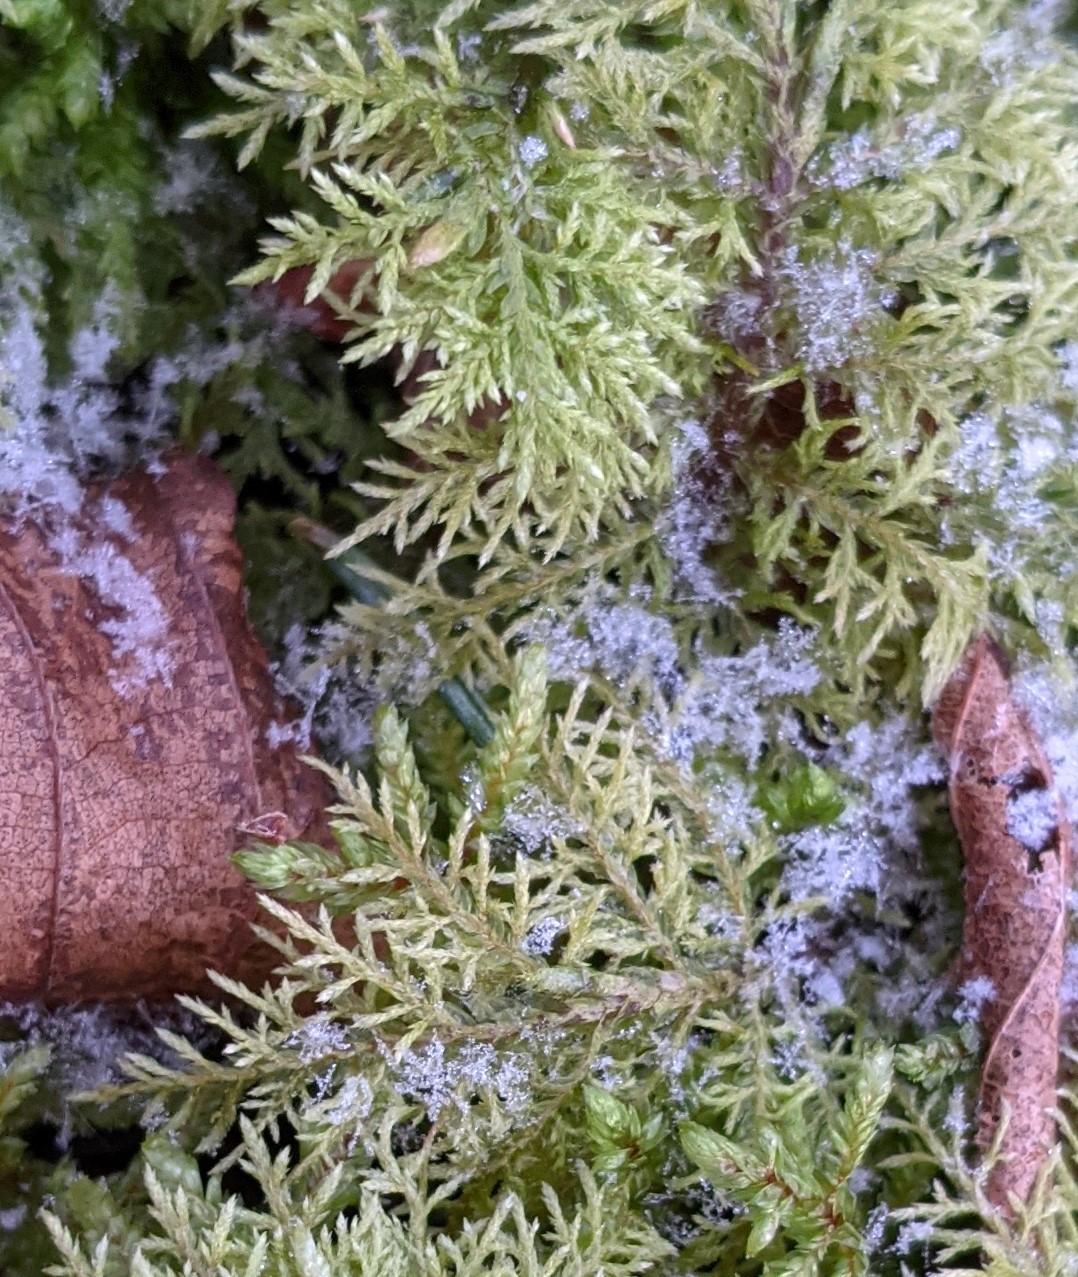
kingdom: Plantae
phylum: Bryophyta
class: Bryopsida
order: Hypnales
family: Hylocomiaceae
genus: Hylocomium
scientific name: Hylocomium splendens
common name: Stairstep moss
